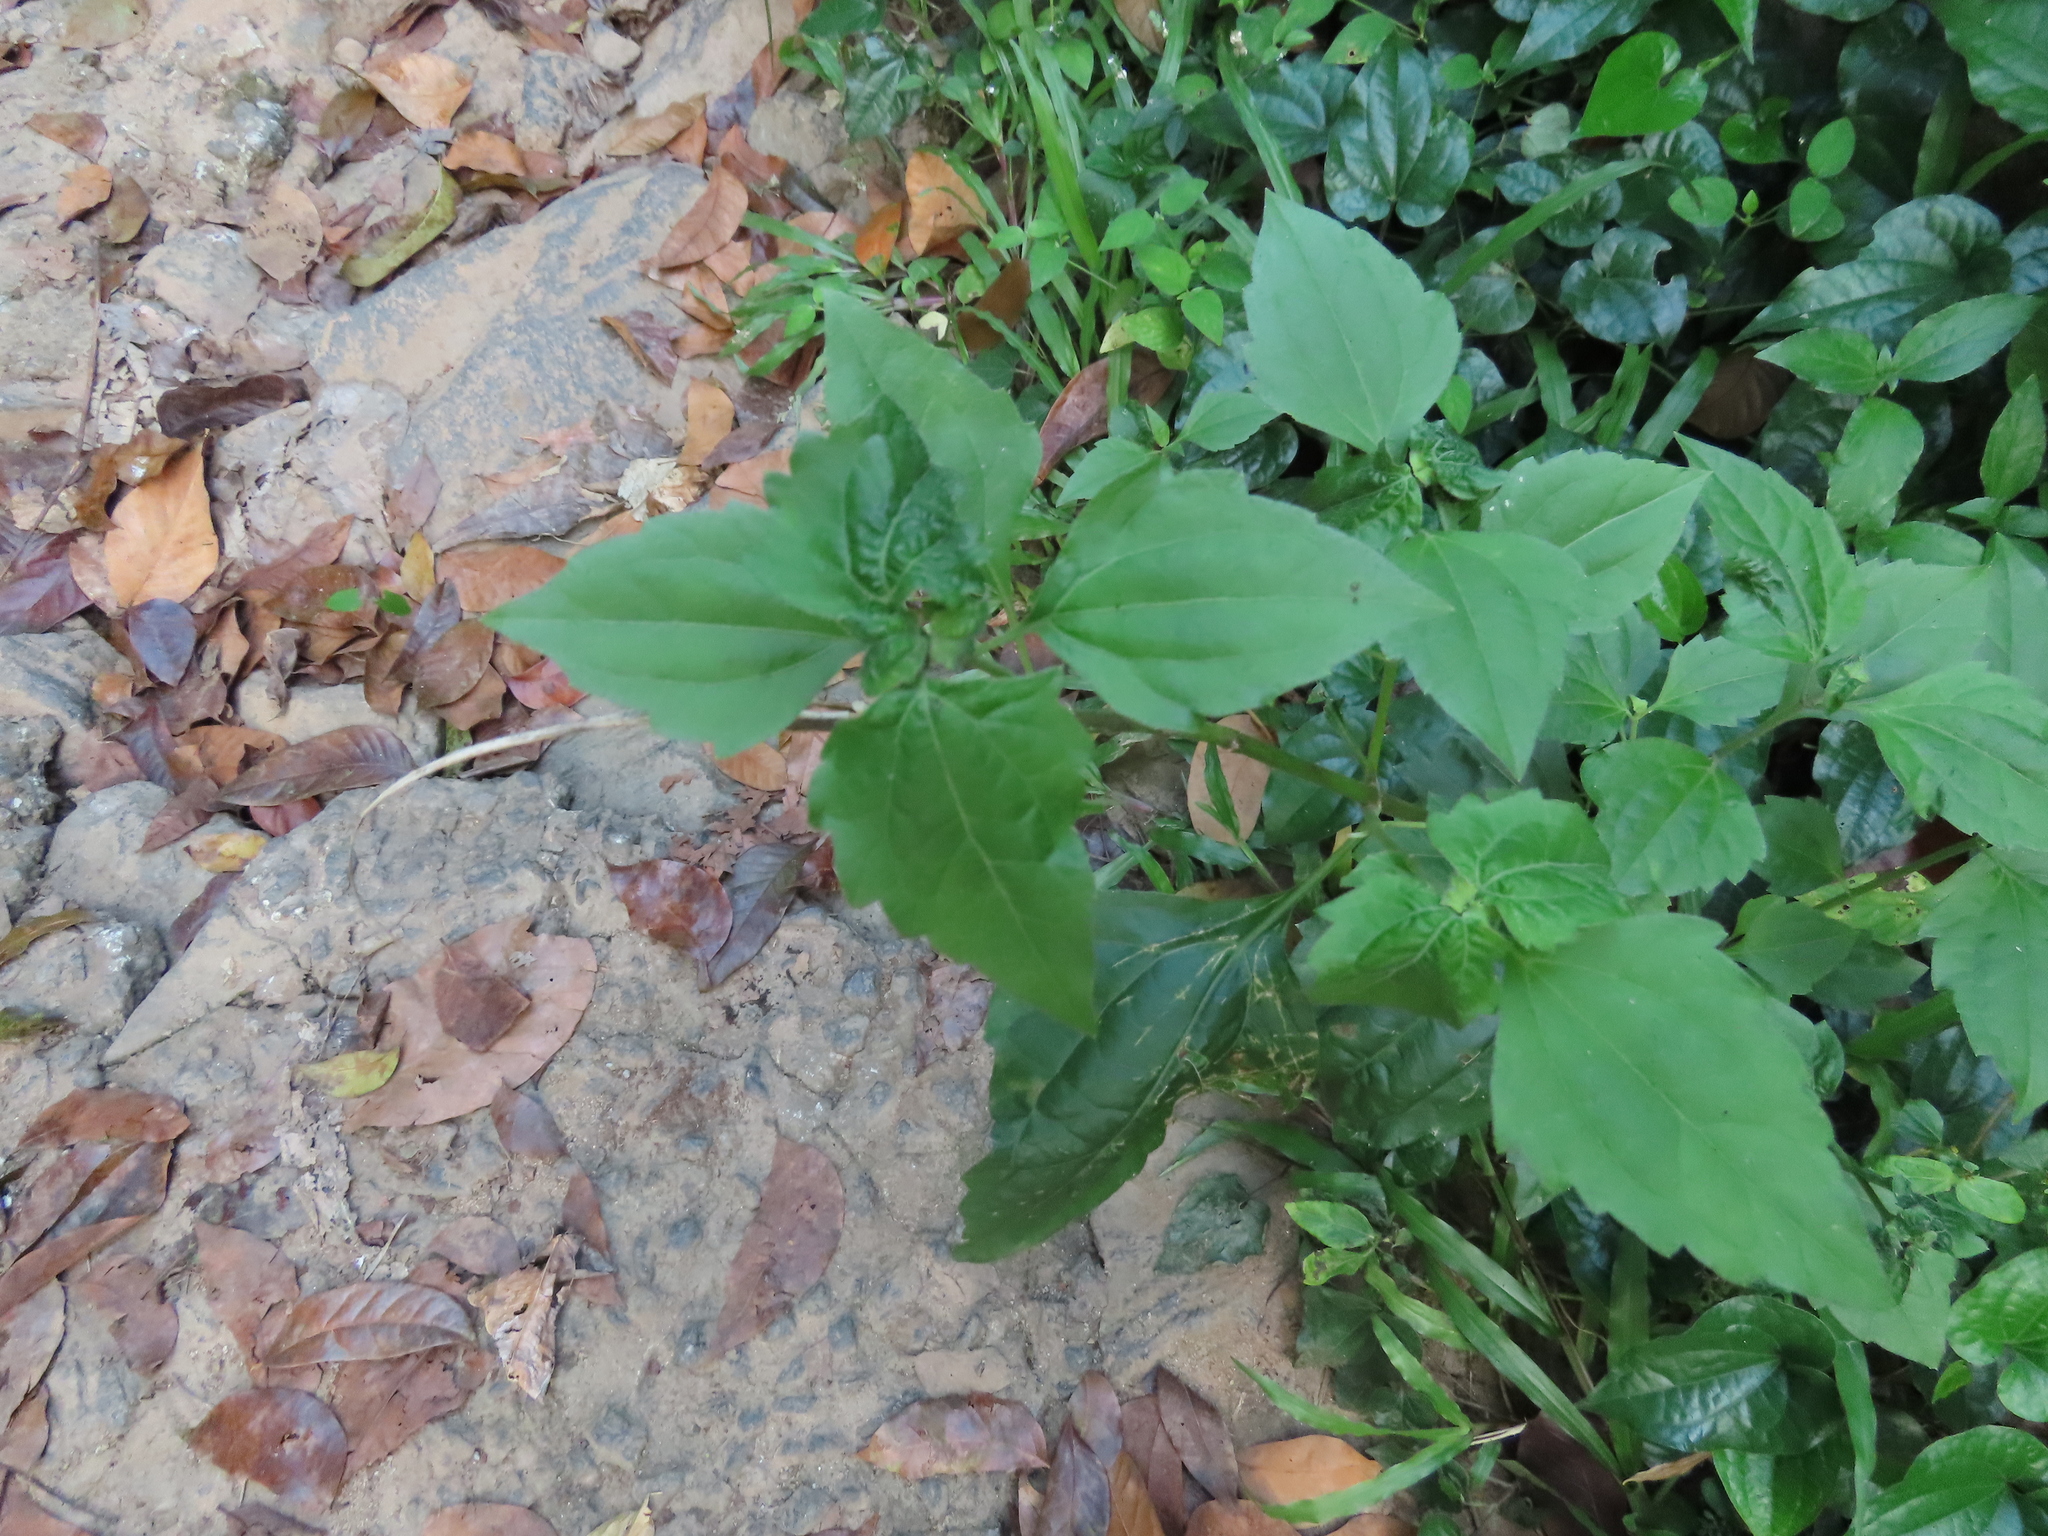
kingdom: Plantae
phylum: Tracheophyta
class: Magnoliopsida
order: Asterales
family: Asteraceae
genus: Chromolaena
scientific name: Chromolaena odorata
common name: Siamweed
